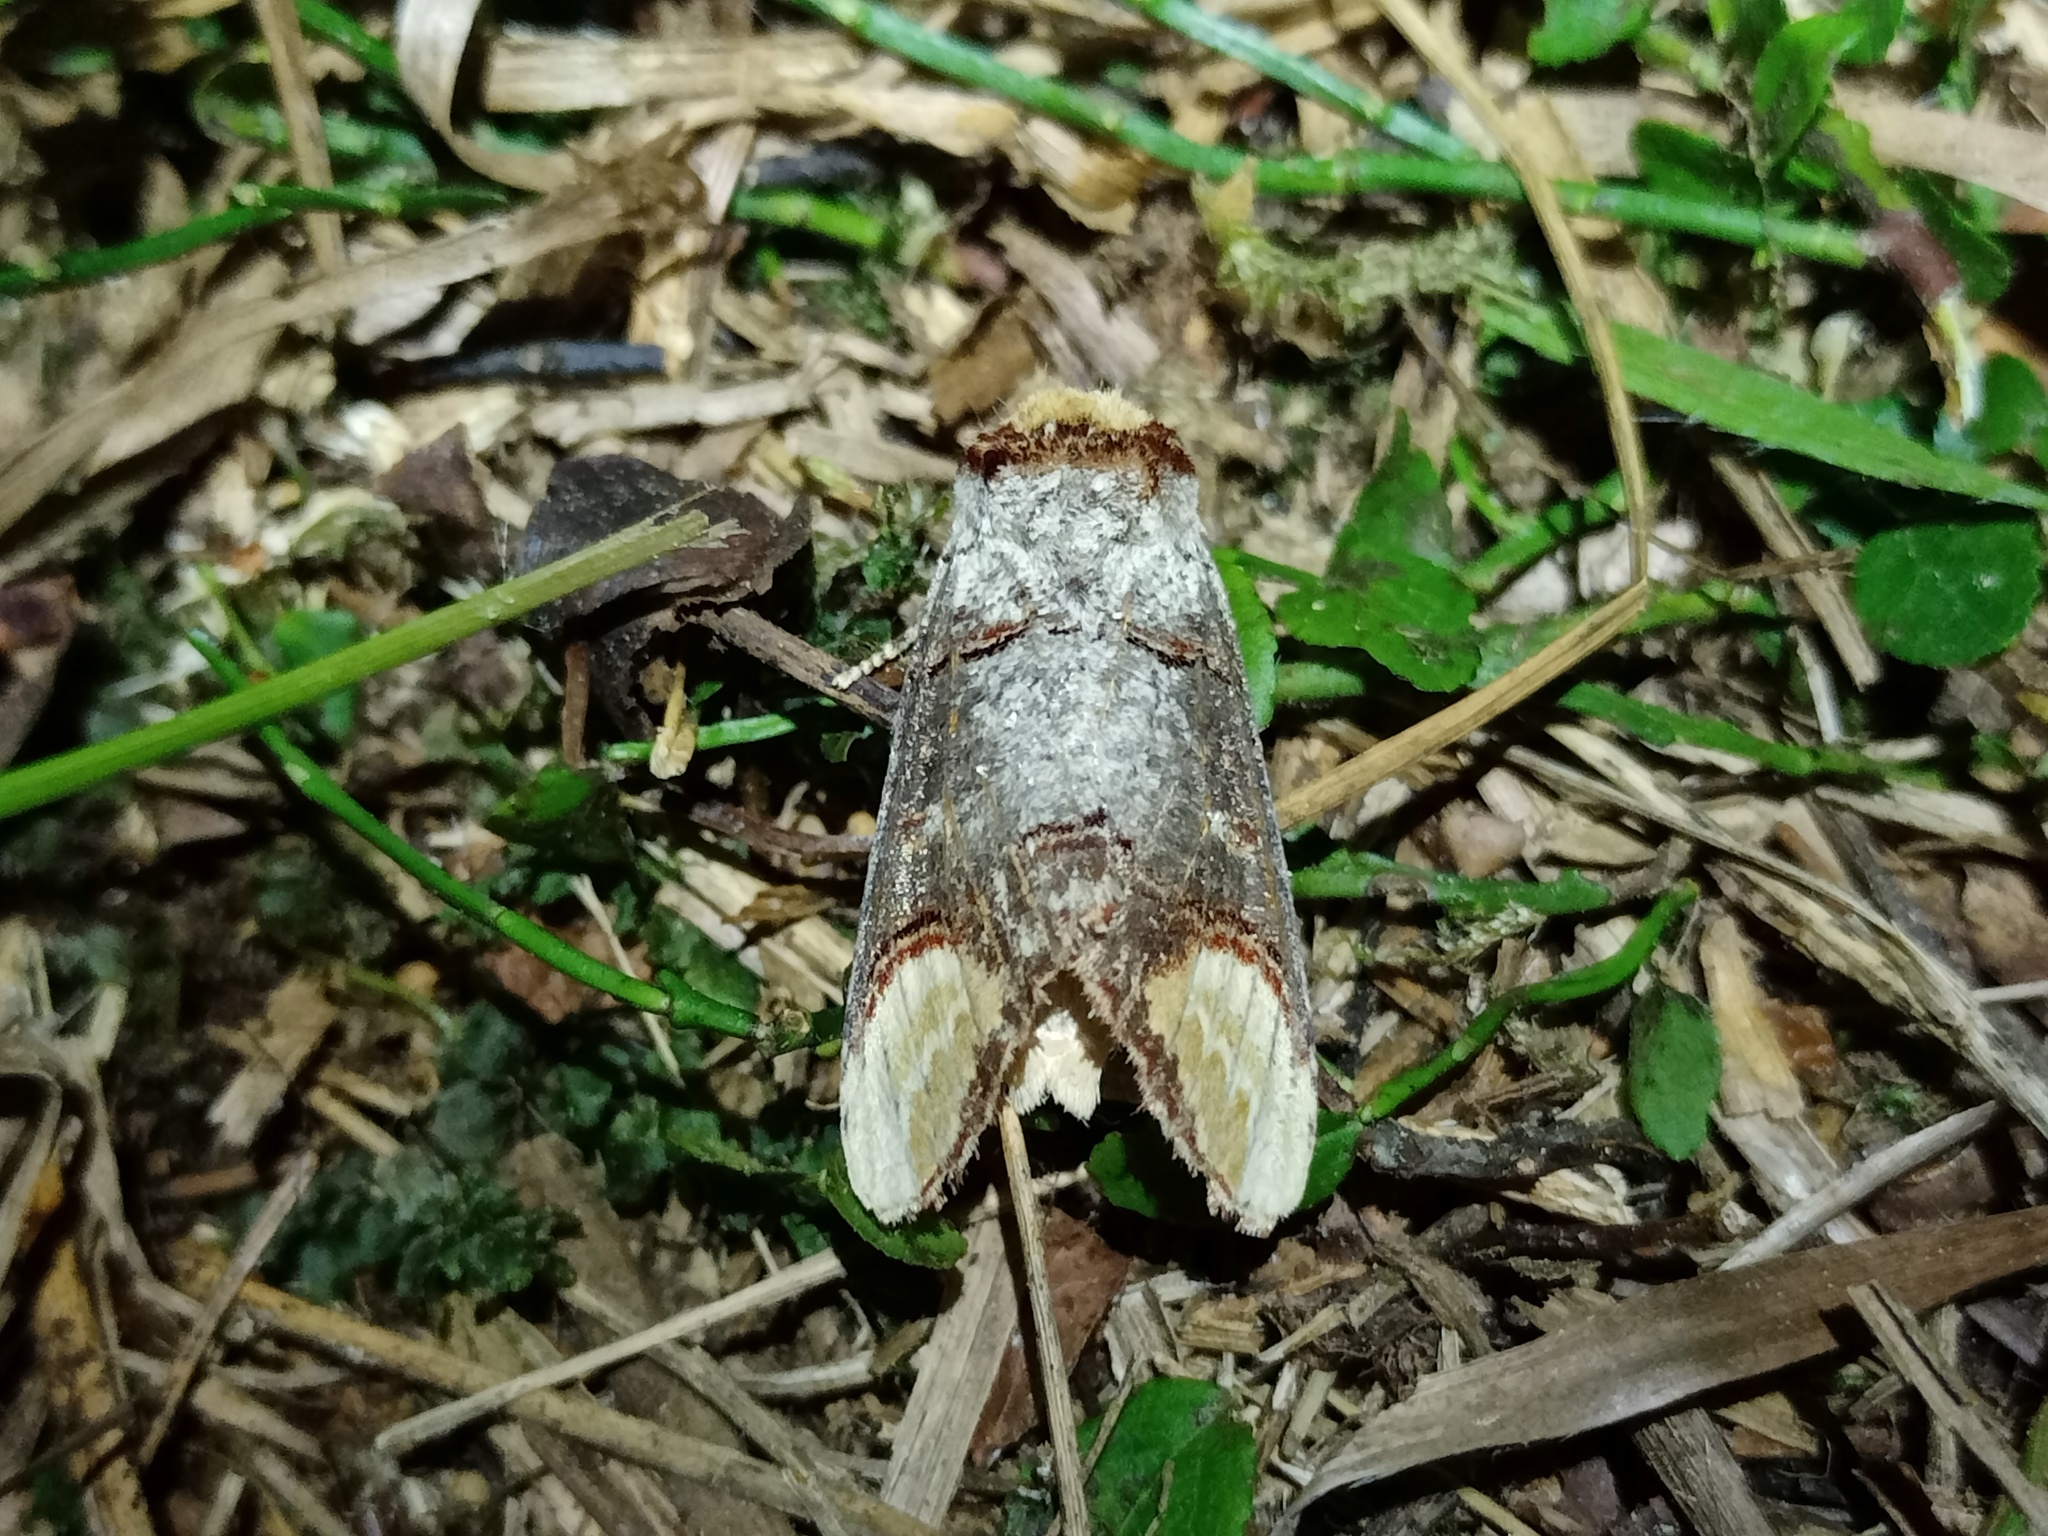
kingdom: Animalia
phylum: Arthropoda
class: Insecta
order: Lepidoptera
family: Notodontidae
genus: Phalera
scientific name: Phalera bucephala
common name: Buff-tip
